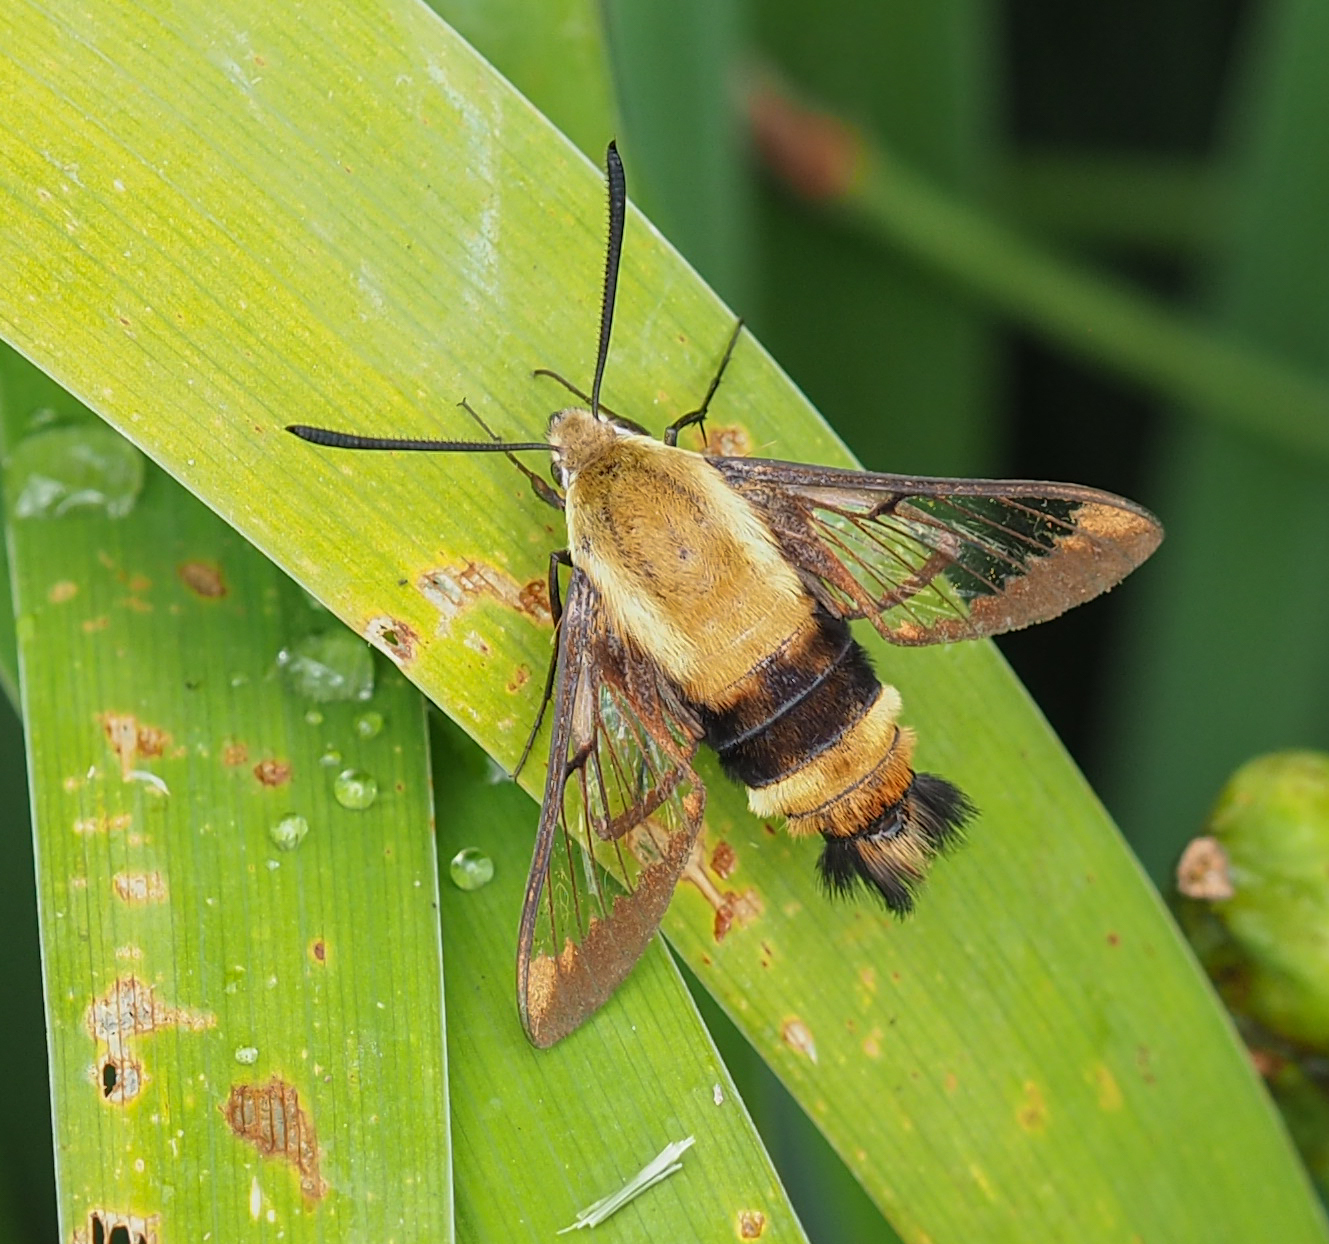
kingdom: Animalia
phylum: Arthropoda
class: Insecta
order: Lepidoptera
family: Sphingidae
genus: Hemaris
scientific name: Hemaris diffinis
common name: Bumblebee moth
